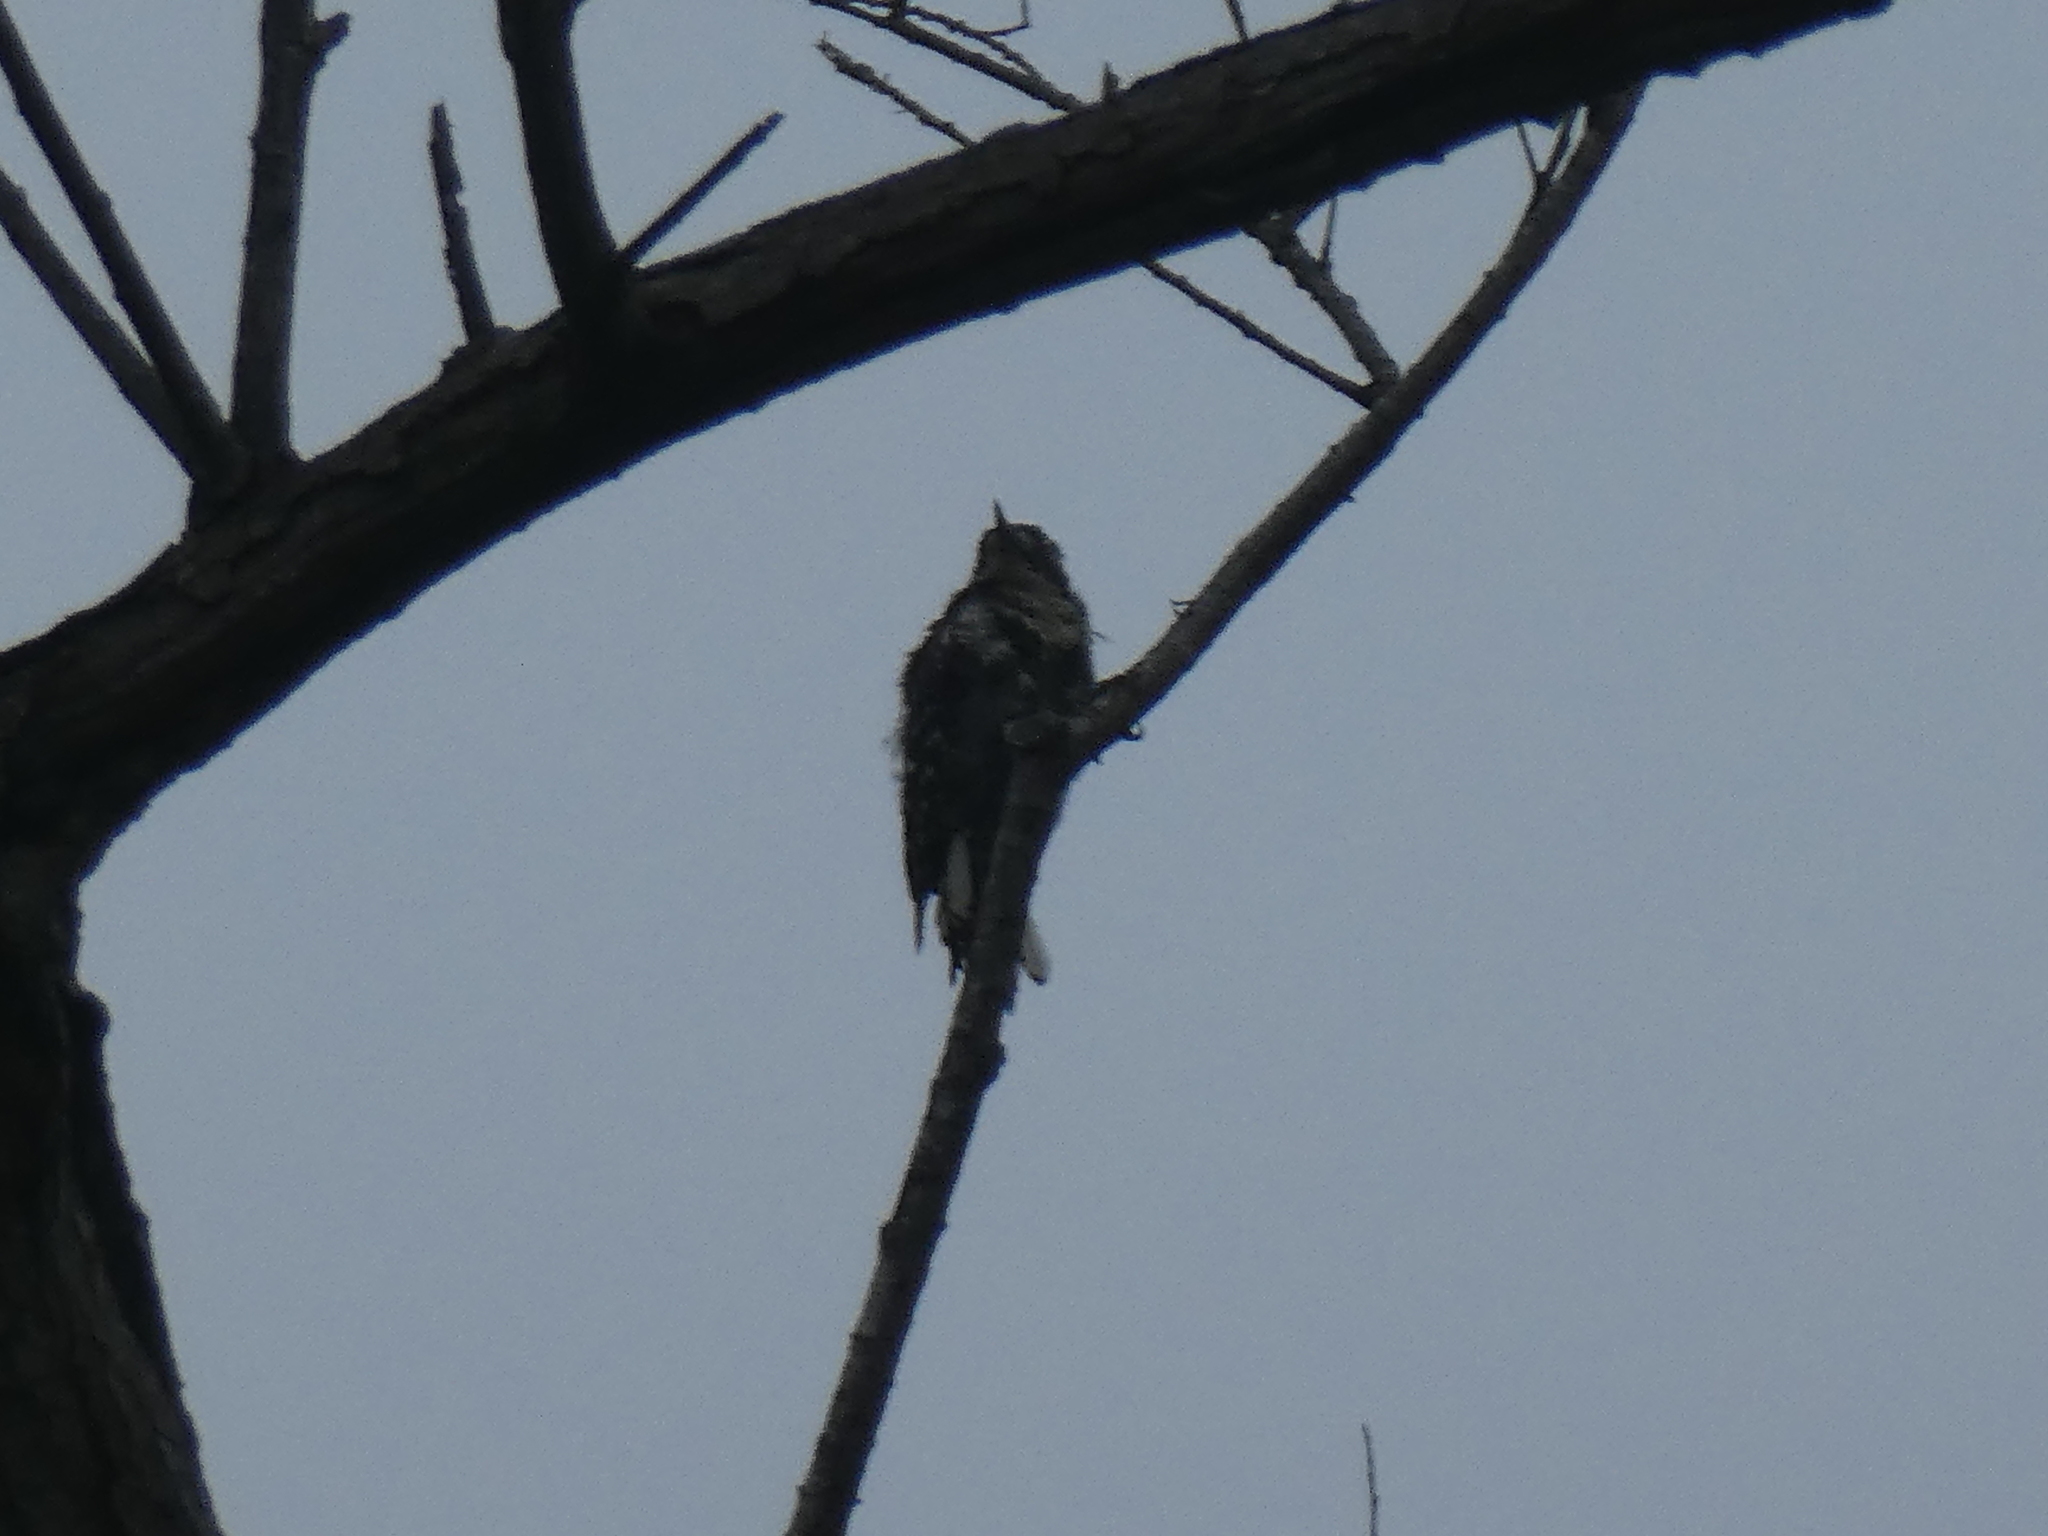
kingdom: Animalia
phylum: Chordata
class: Aves
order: Piciformes
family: Picidae
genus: Dryobates
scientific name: Dryobates nuttallii
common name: Nuttall's woodpecker
